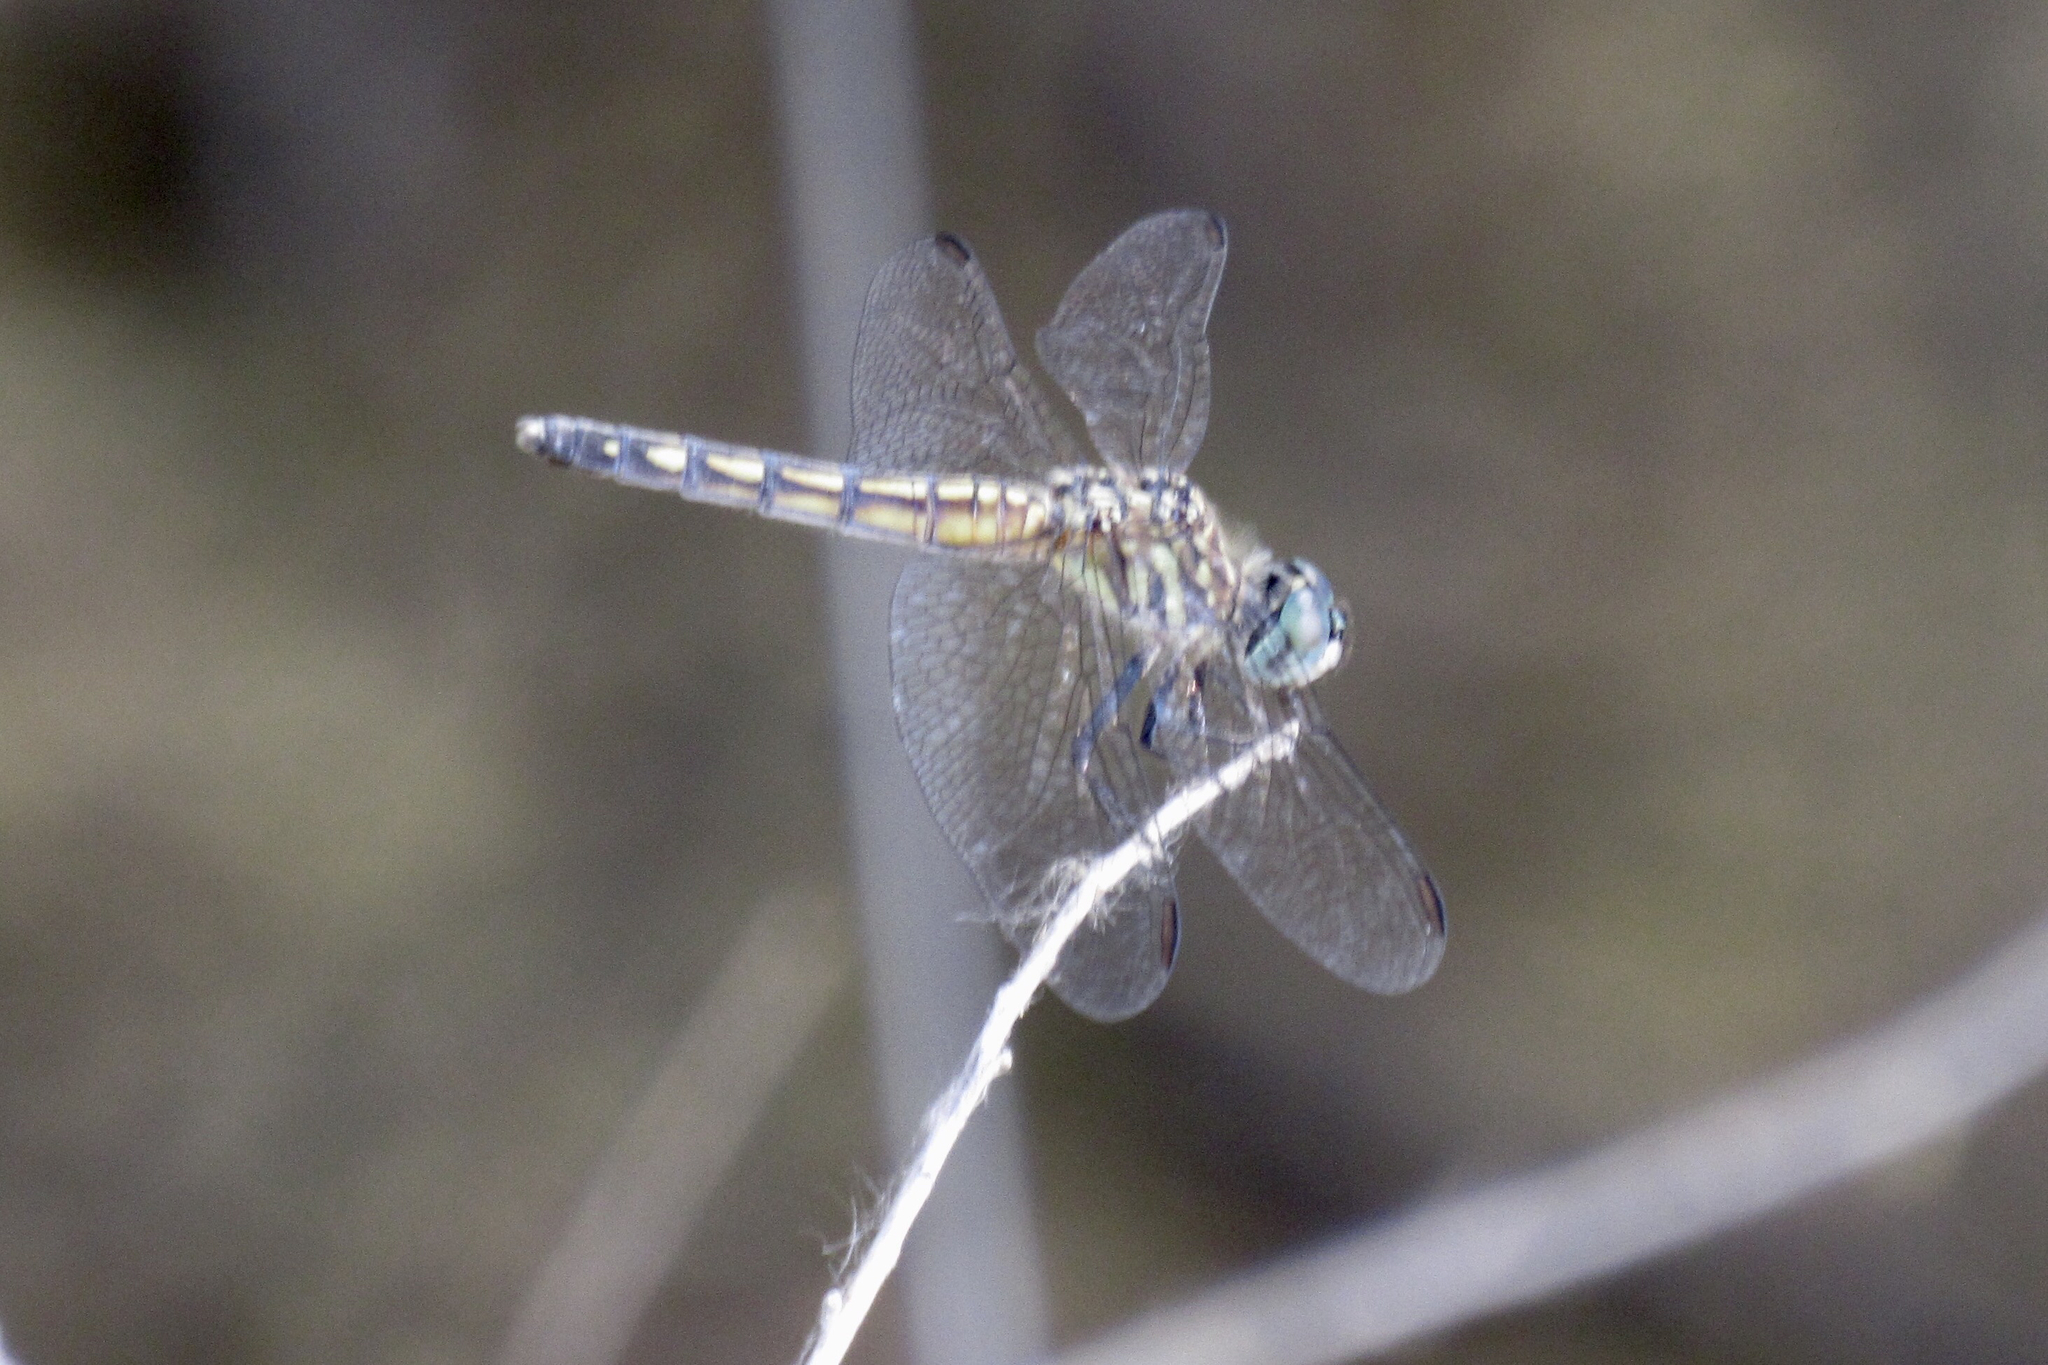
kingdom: Animalia
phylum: Arthropoda
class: Insecta
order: Odonata
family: Libellulidae
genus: Pachydiplax
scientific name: Pachydiplax longipennis
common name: Blue dasher
